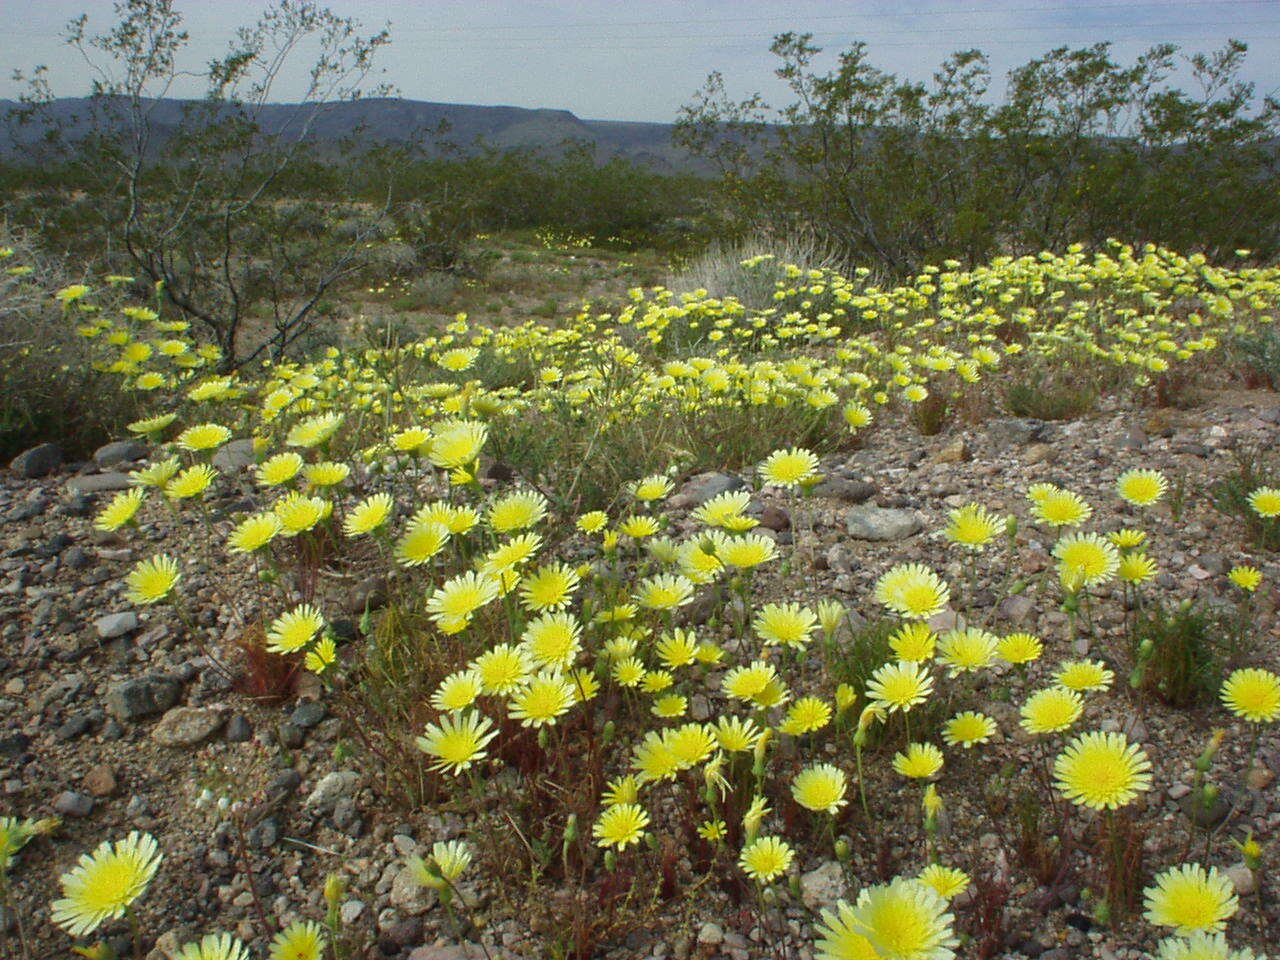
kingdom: Plantae
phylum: Tracheophyta
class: Magnoliopsida
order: Asterales
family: Asteraceae
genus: Malacothrix
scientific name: Malacothrix glabrata
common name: Smooth desert-dandelion
